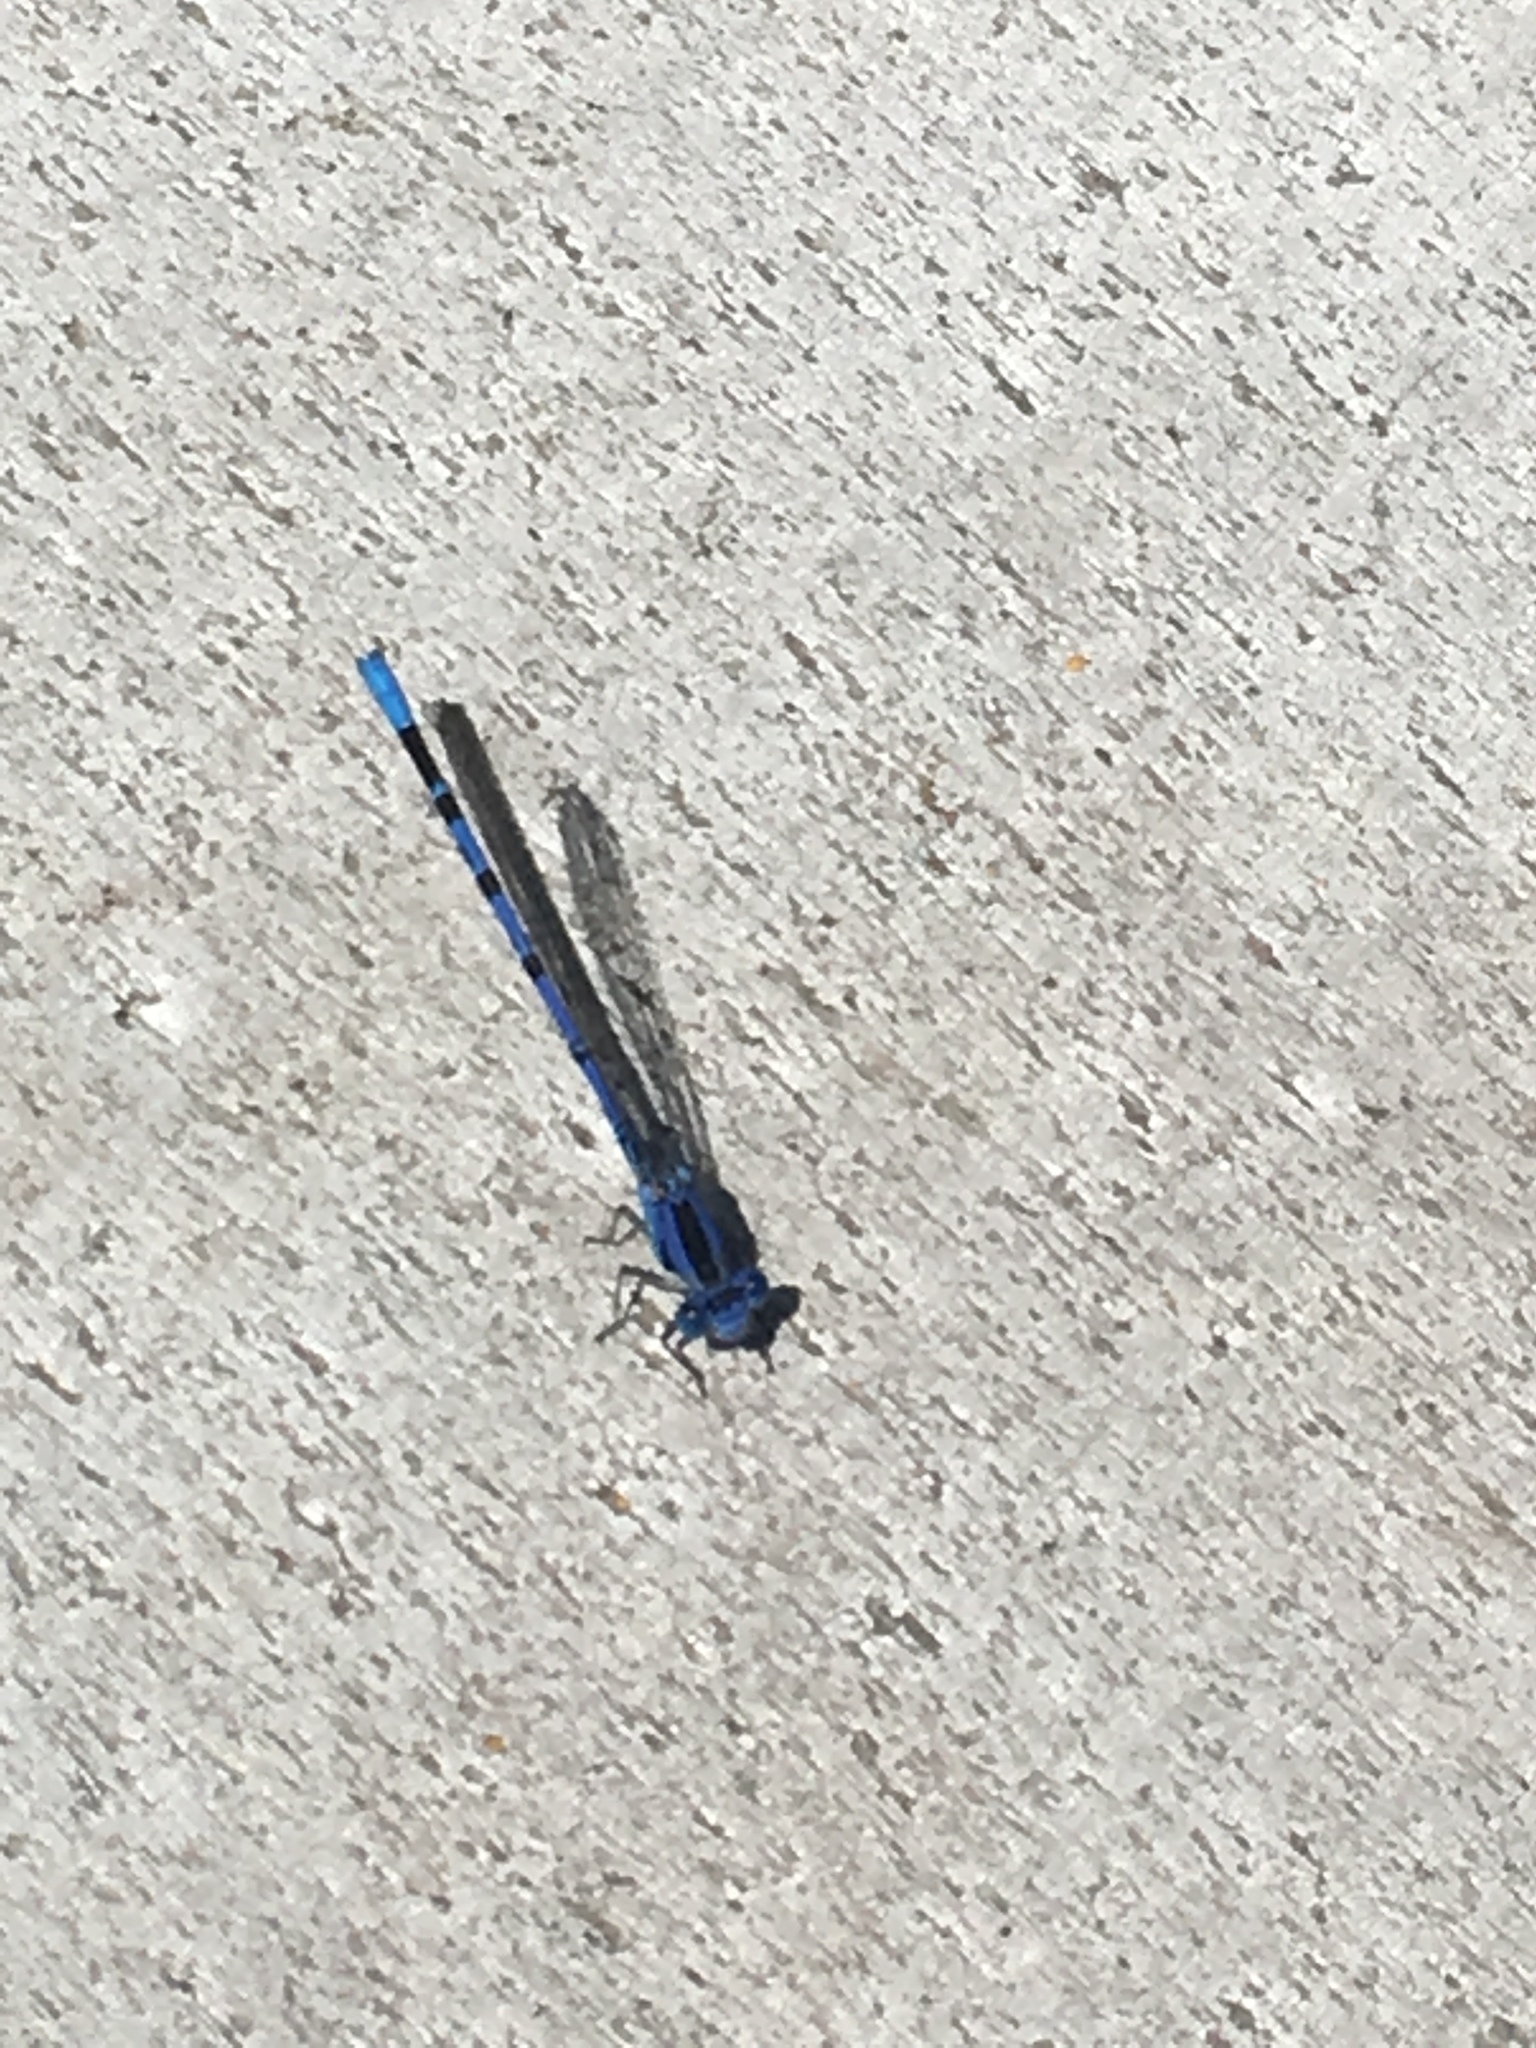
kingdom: Animalia
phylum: Arthropoda
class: Insecta
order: Odonata
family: Coenagrionidae
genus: Argia
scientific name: Argia vivida
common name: Vivid dancer
